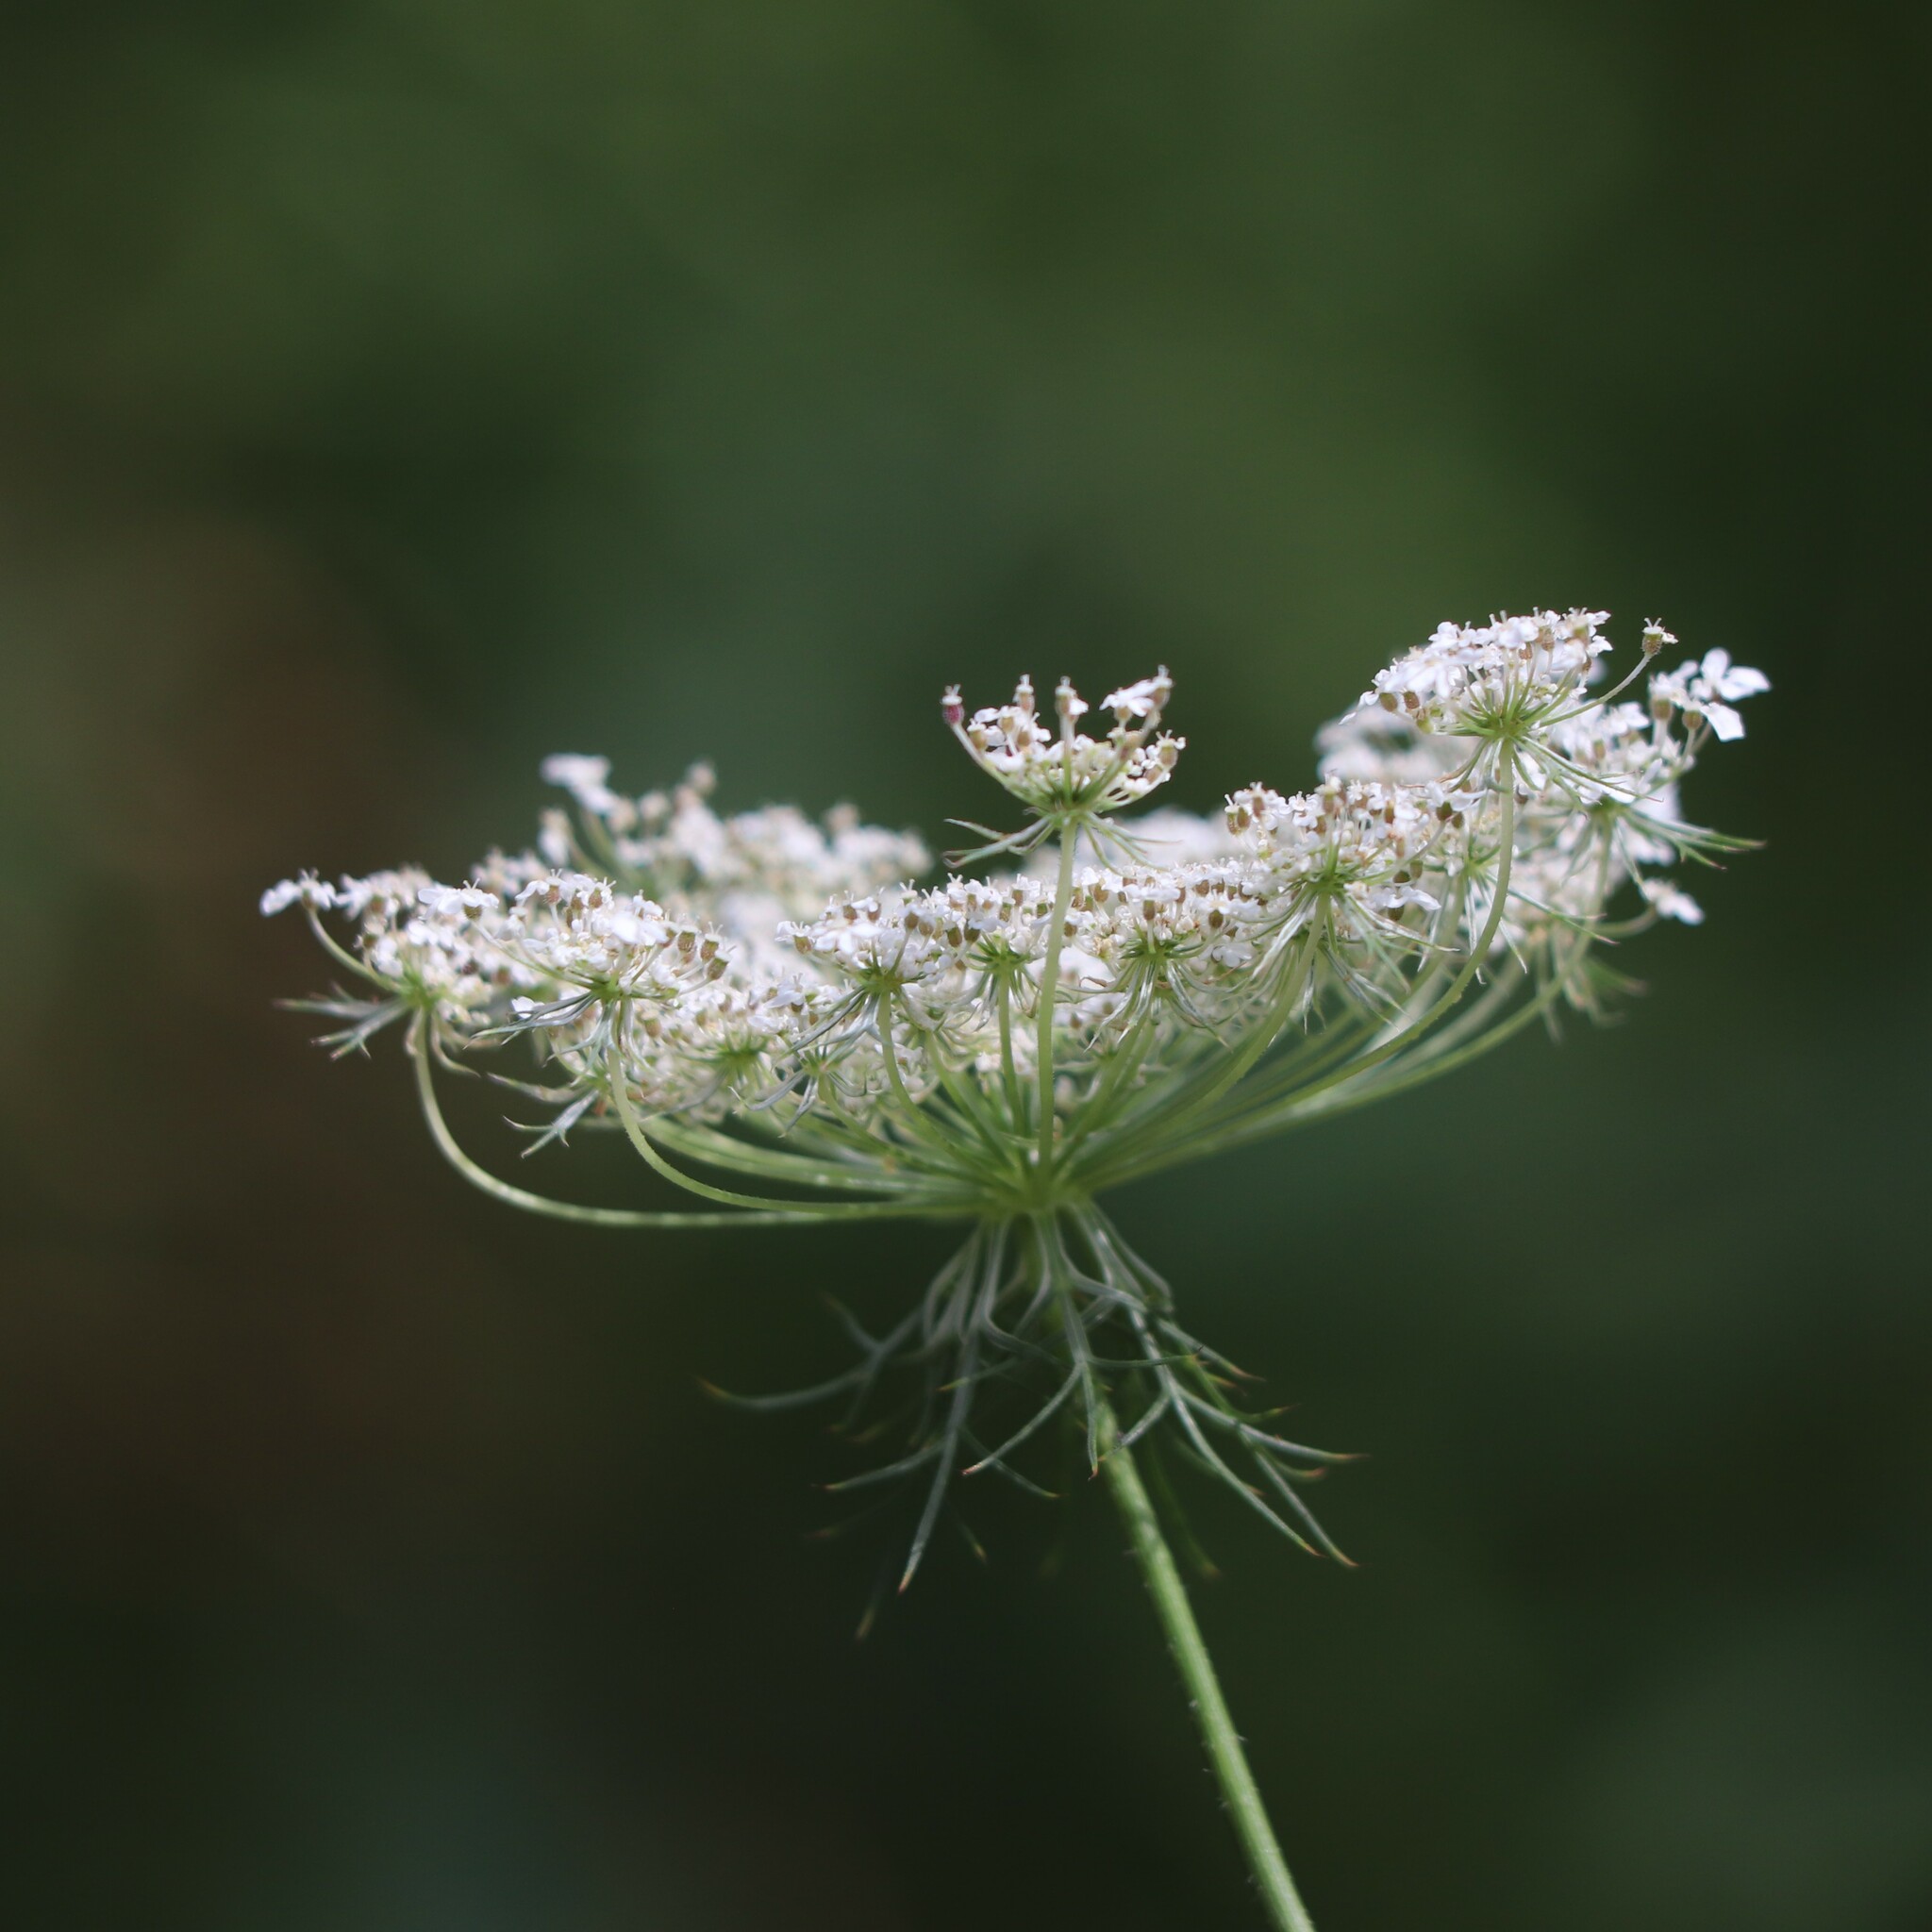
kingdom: Plantae
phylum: Tracheophyta
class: Magnoliopsida
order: Apiales
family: Apiaceae
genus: Daucus
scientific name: Daucus carota
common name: Wild carrot
